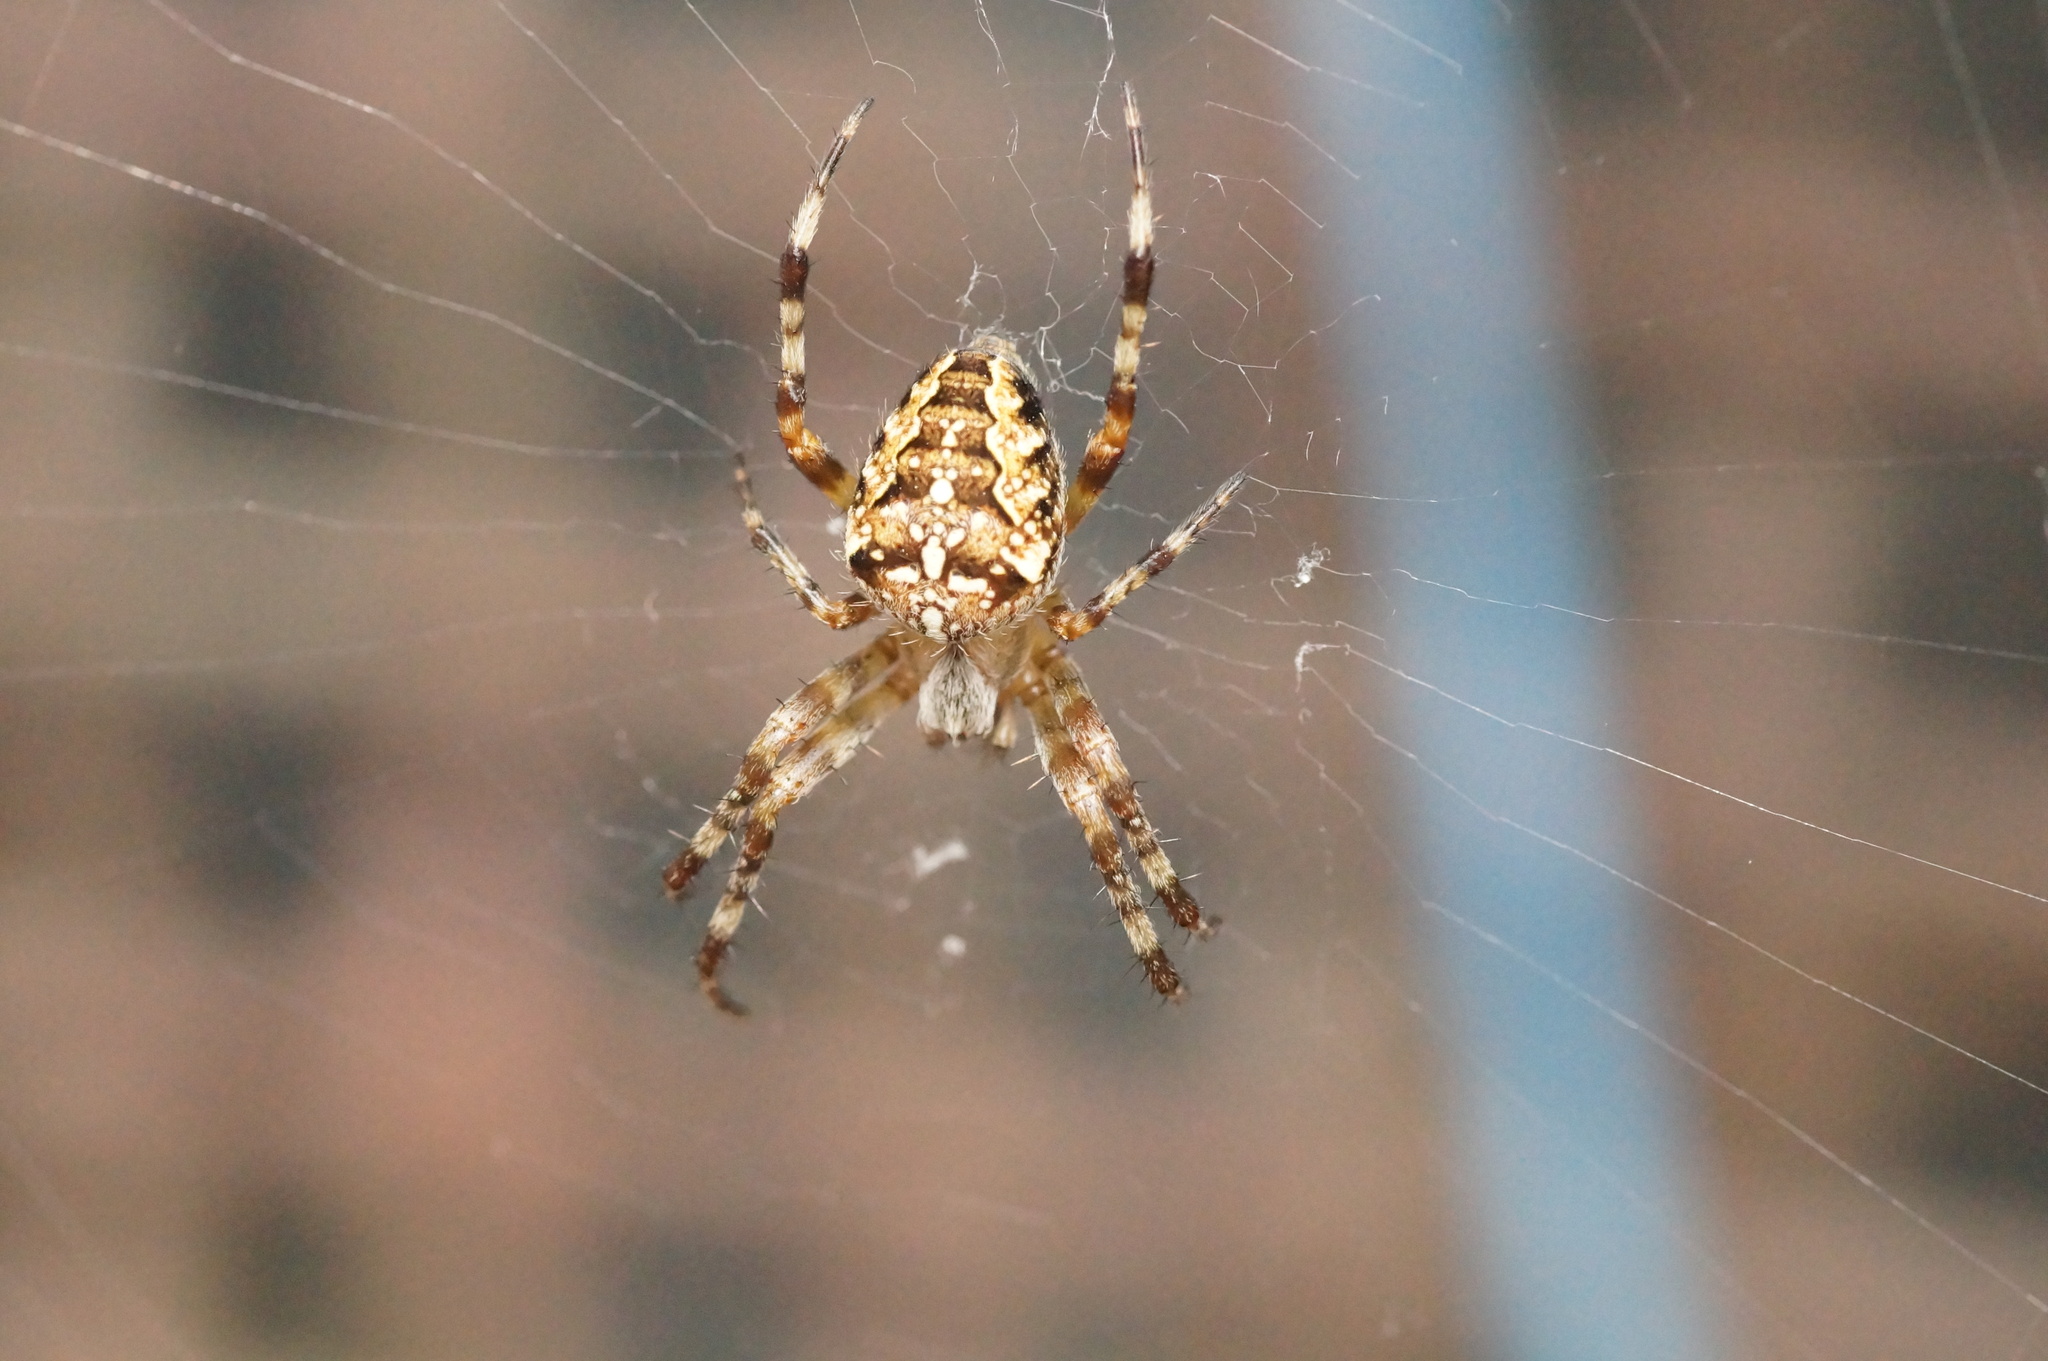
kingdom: Animalia
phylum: Arthropoda
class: Arachnida
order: Araneae
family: Araneidae
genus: Araneus
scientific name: Araneus diadematus
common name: Cross orbweaver
